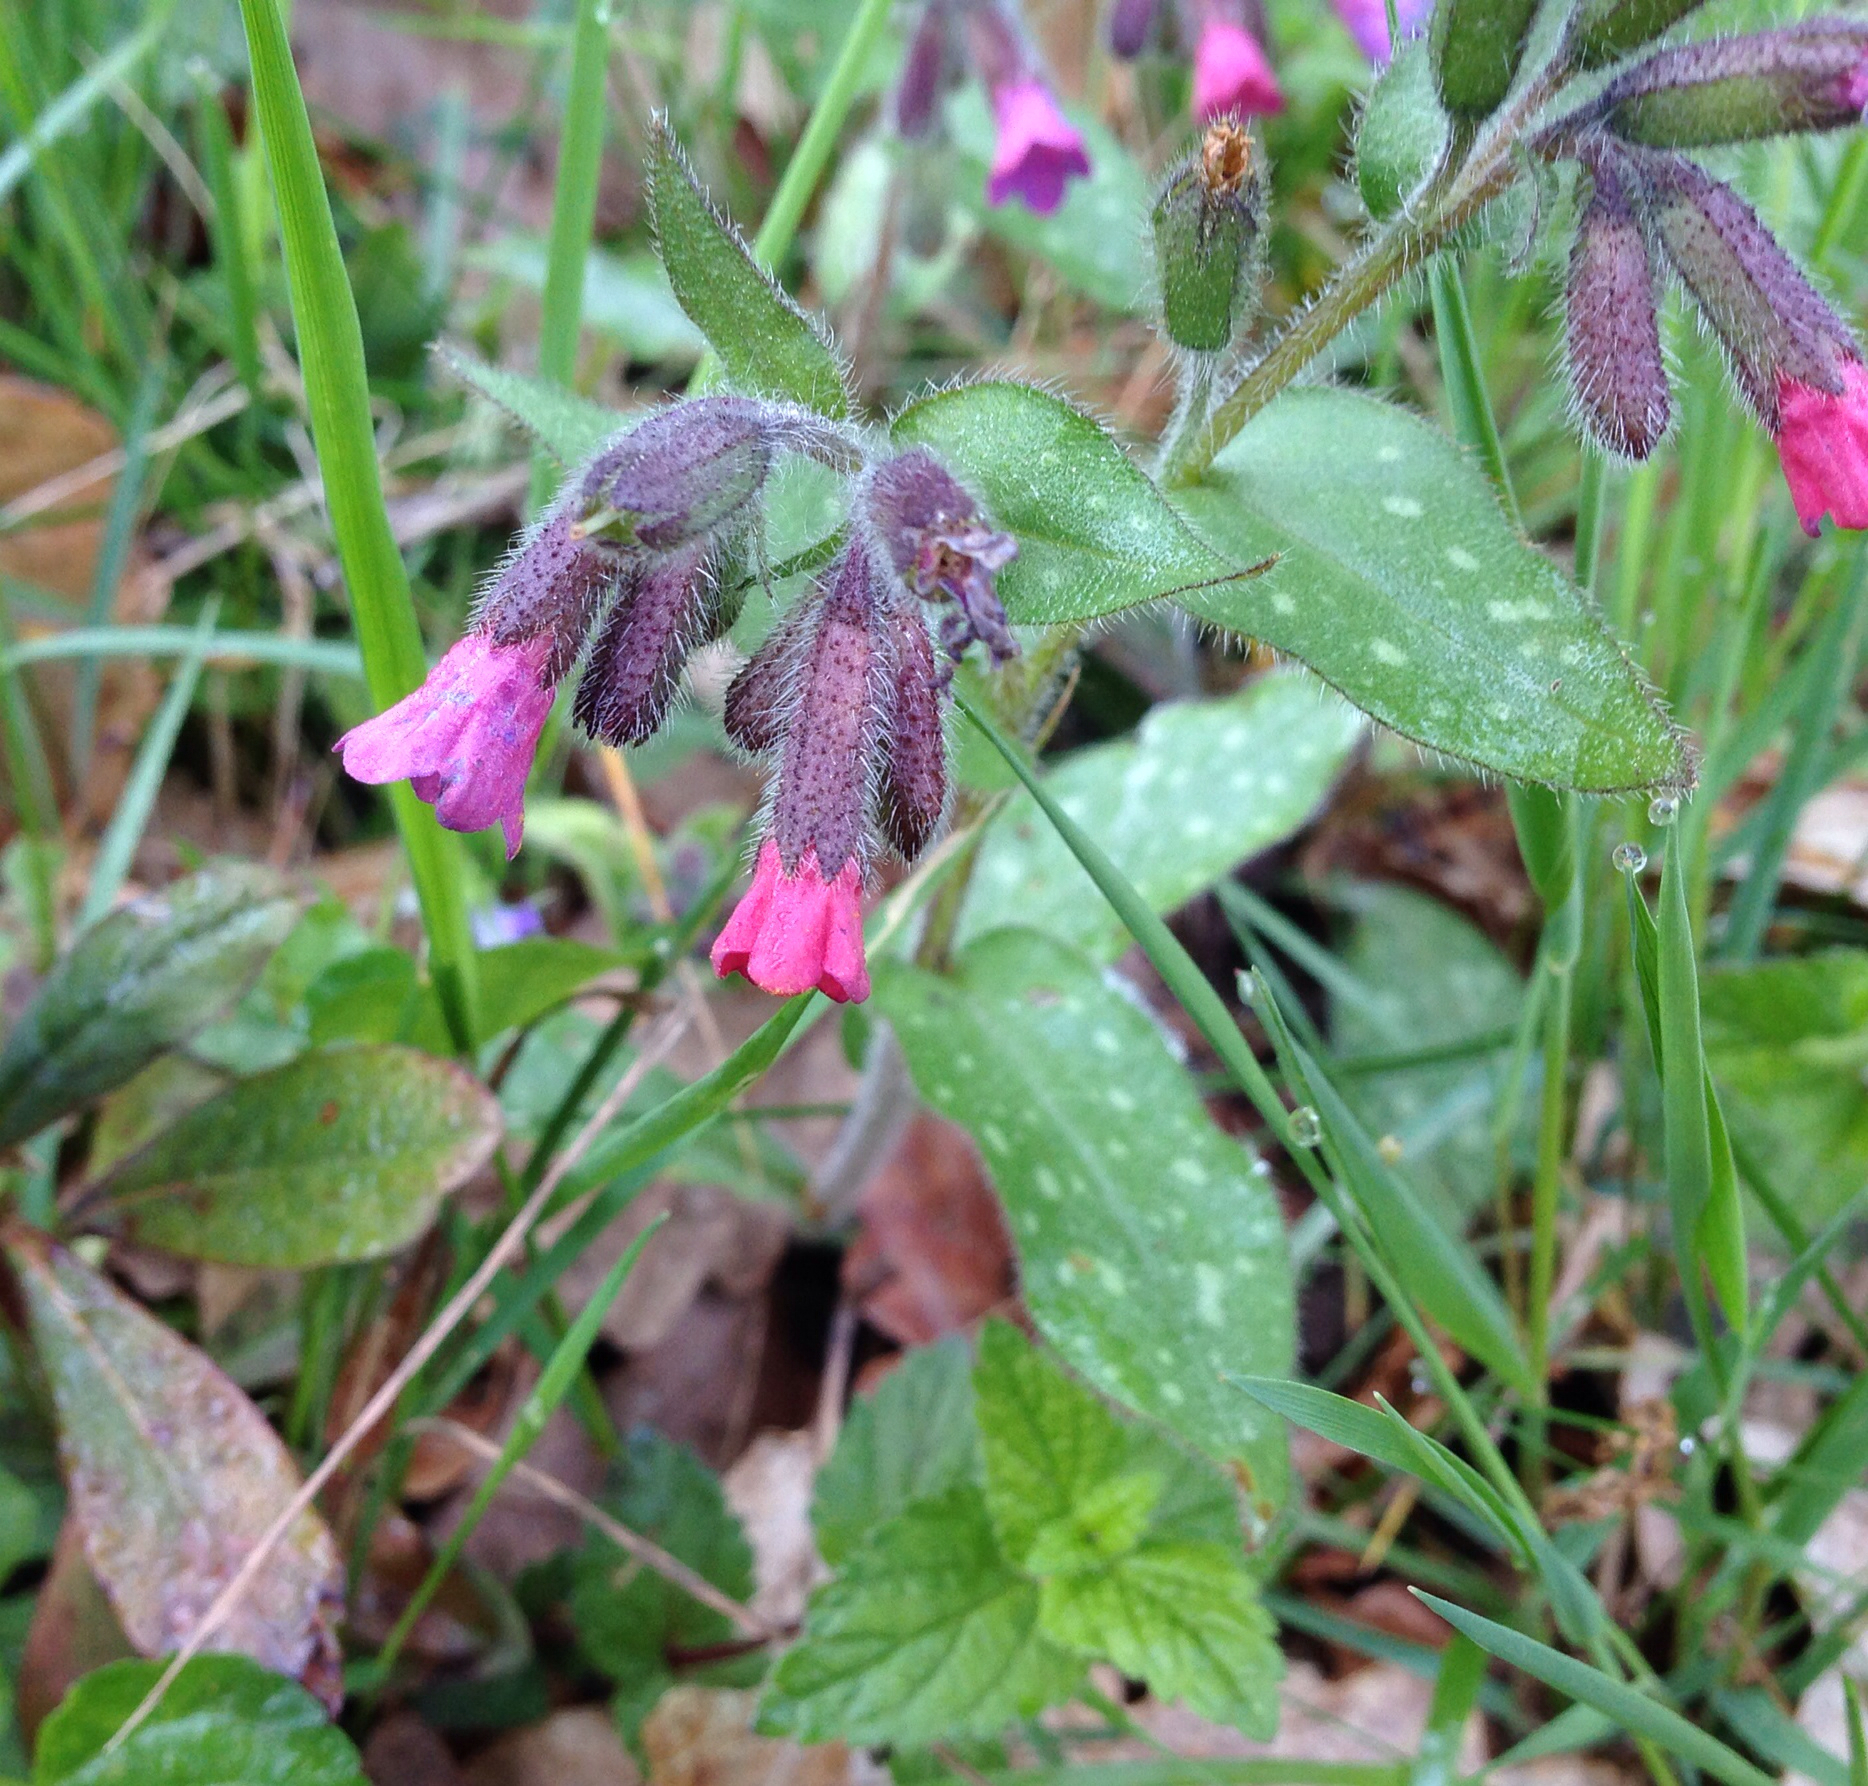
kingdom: Plantae
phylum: Tracheophyta
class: Magnoliopsida
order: Boraginales
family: Boraginaceae
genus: Pulmonaria
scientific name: Pulmonaria officinalis
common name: Lungwort
